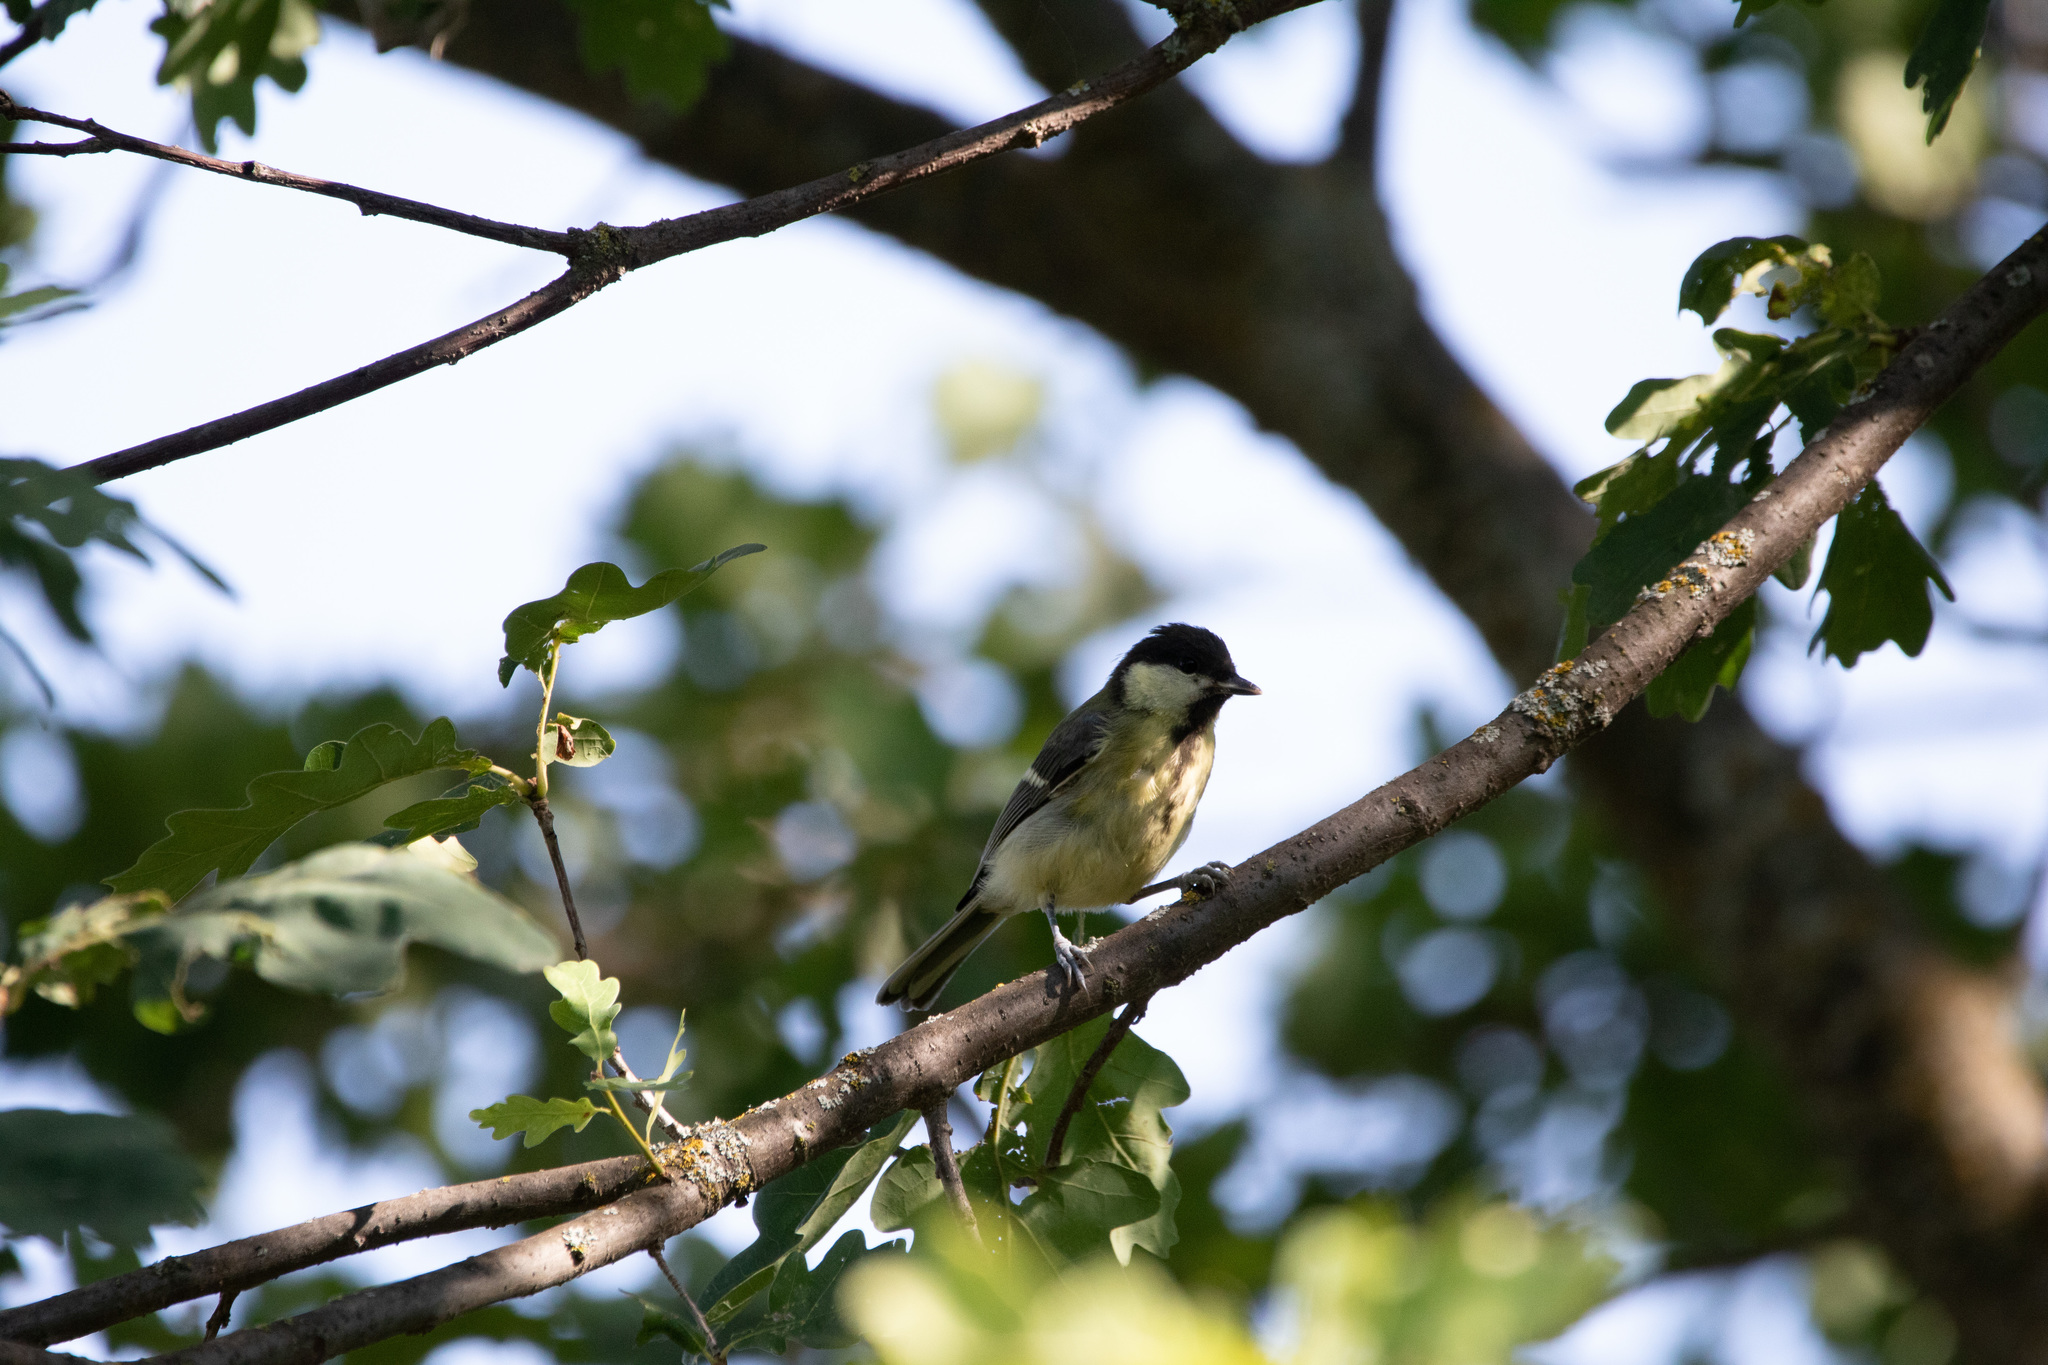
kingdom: Animalia
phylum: Chordata
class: Aves
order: Passeriformes
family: Paridae
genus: Parus
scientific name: Parus major
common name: Great tit
